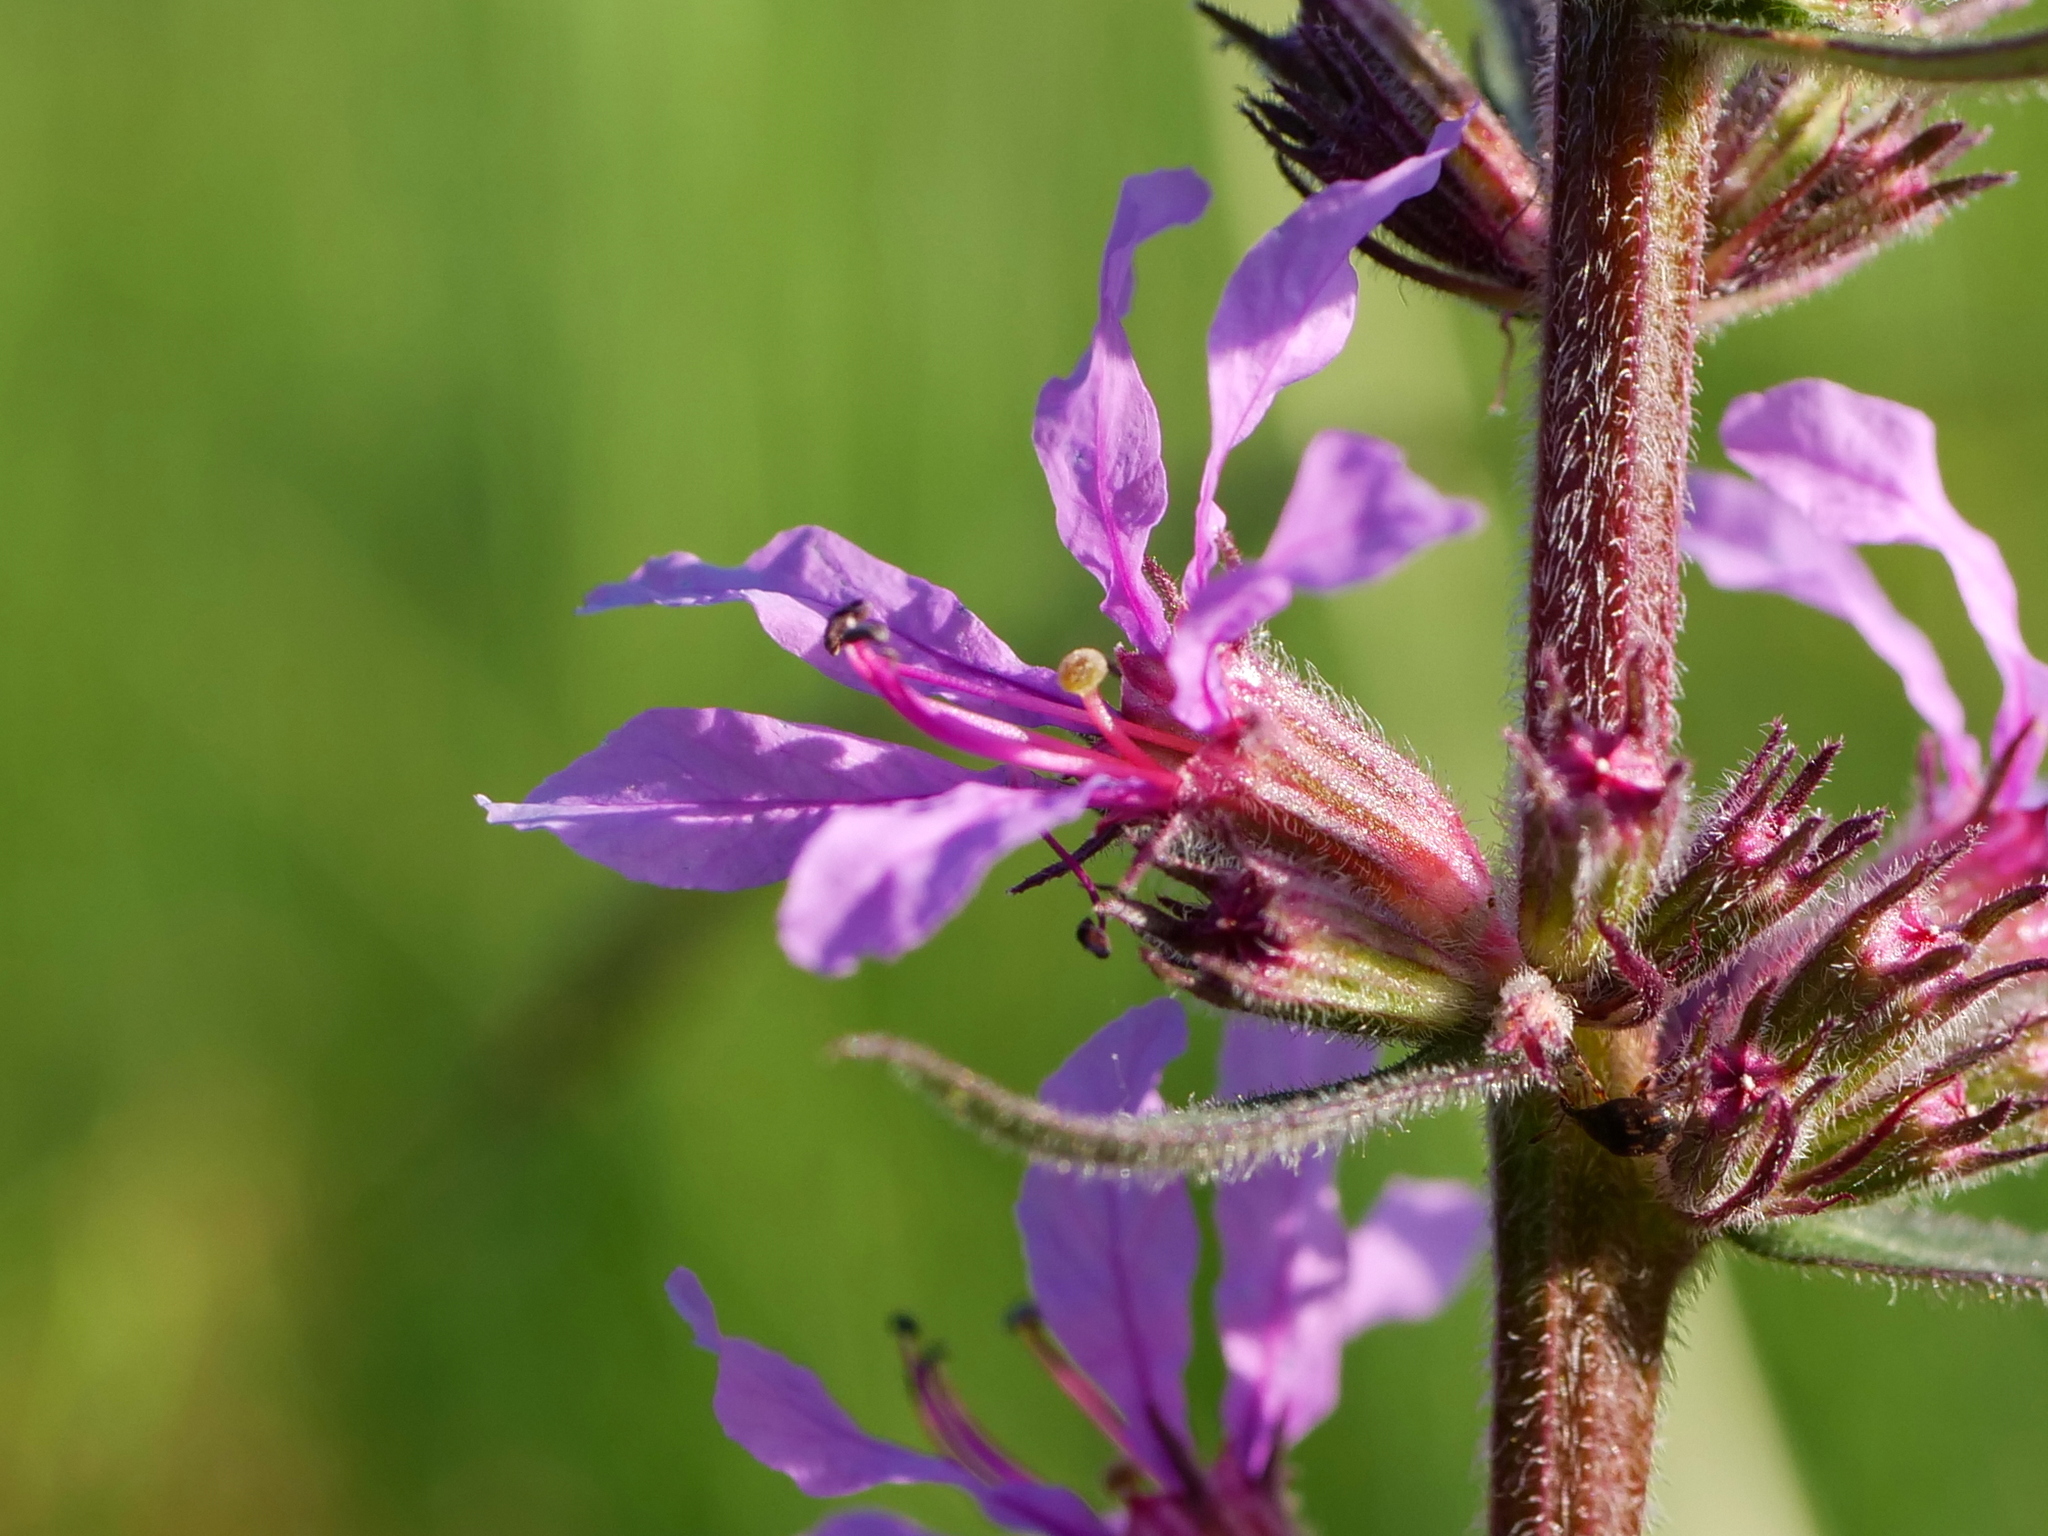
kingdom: Plantae
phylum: Tracheophyta
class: Magnoliopsida
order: Myrtales
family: Lythraceae
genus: Lythrum
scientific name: Lythrum salicaria
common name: Purple loosestrife
